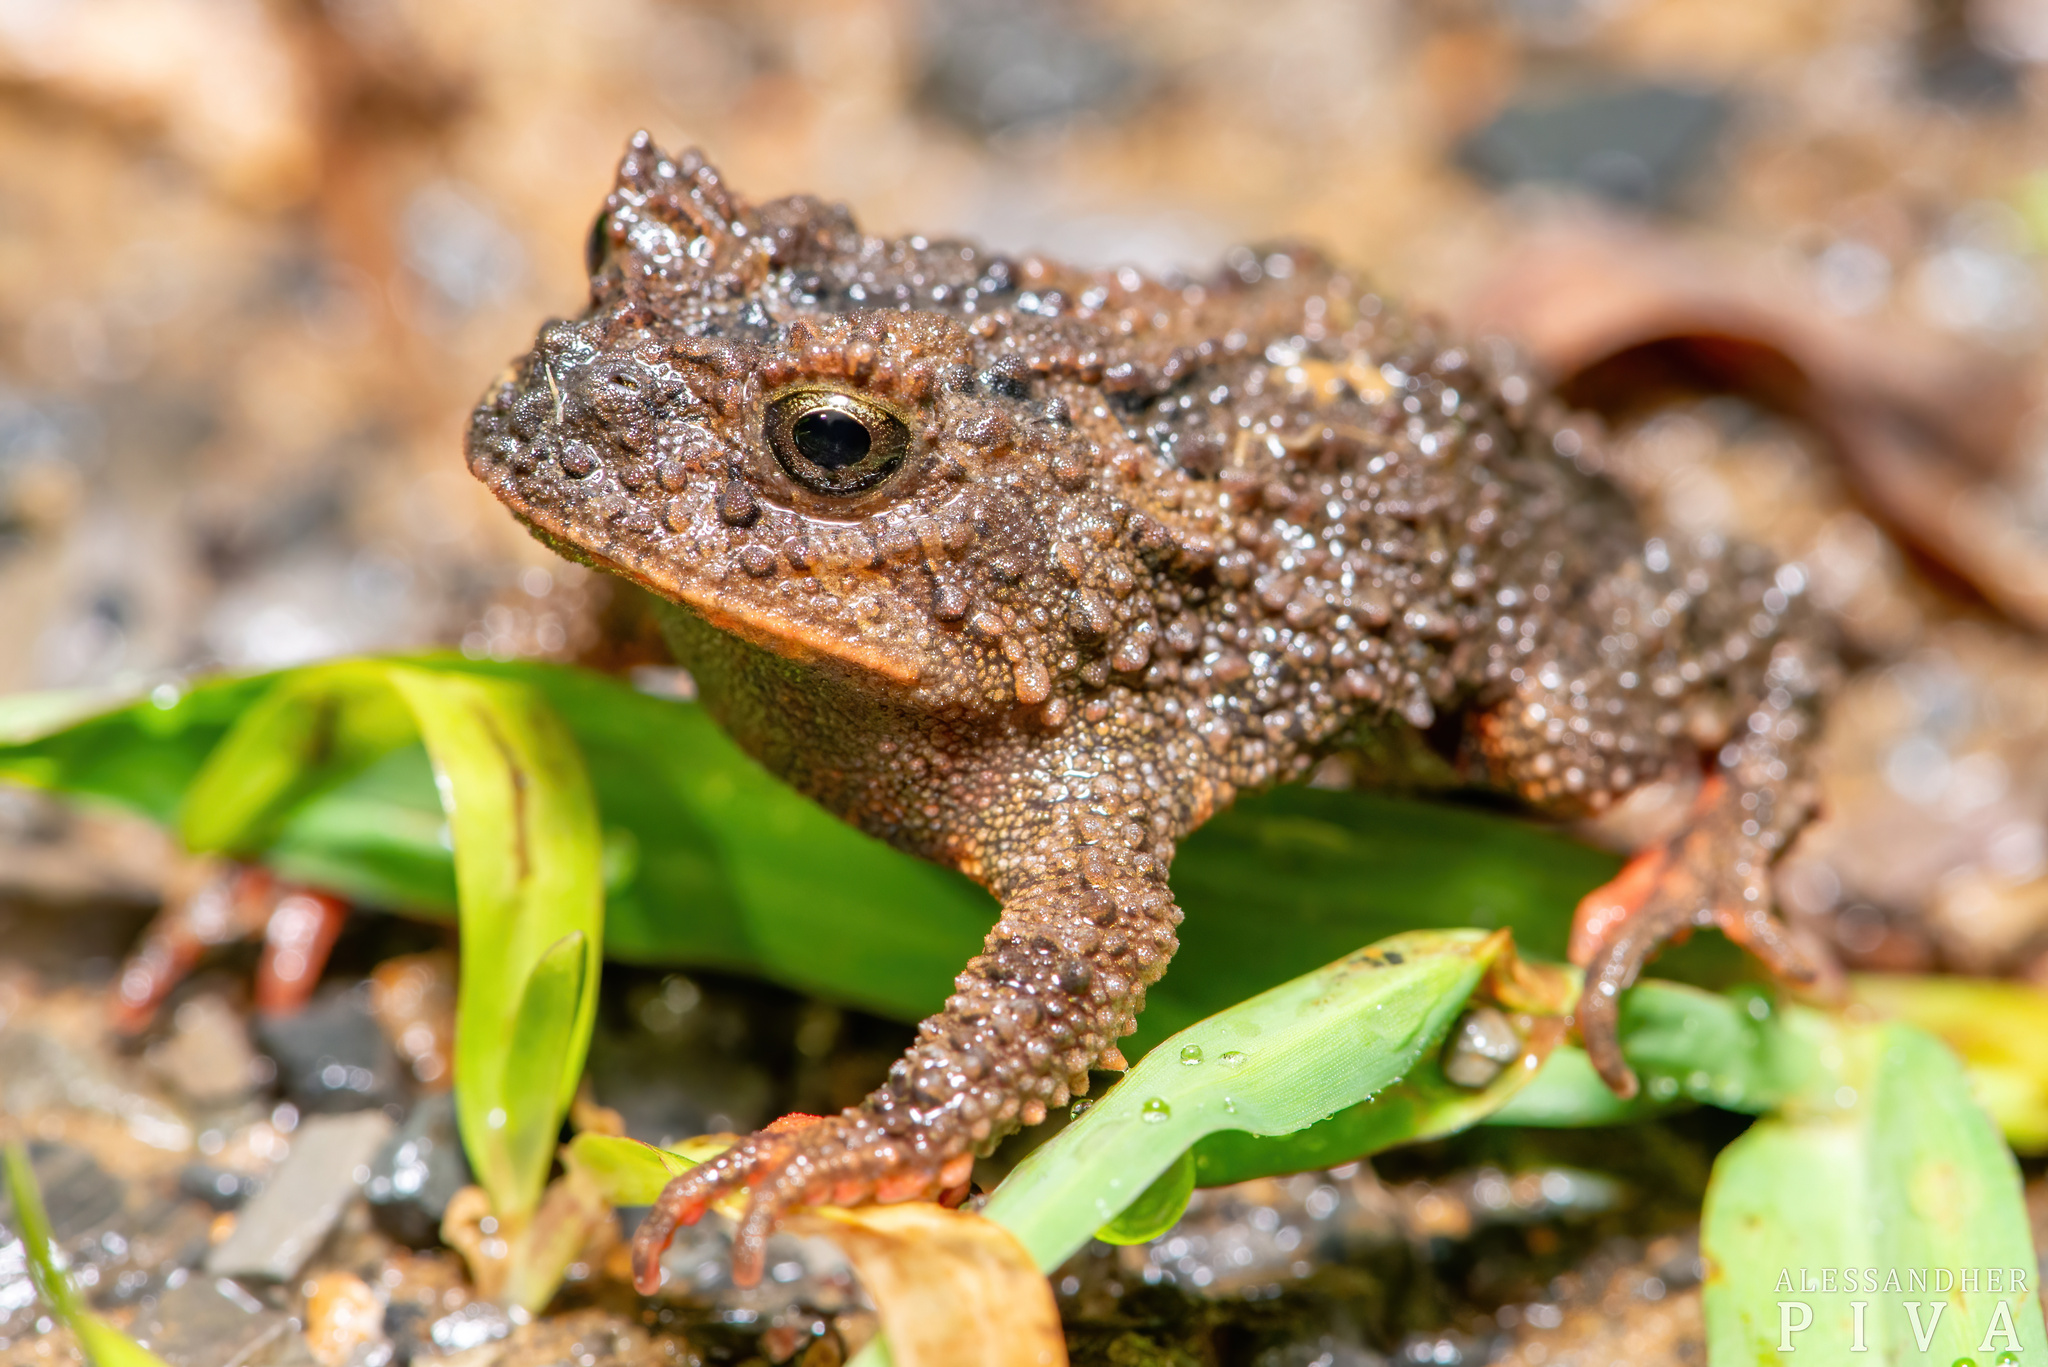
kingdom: Animalia
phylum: Chordata
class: Amphibia
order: Anura
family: Odontophrynidae
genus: Proceratophrys
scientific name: Proceratophrys brauni
